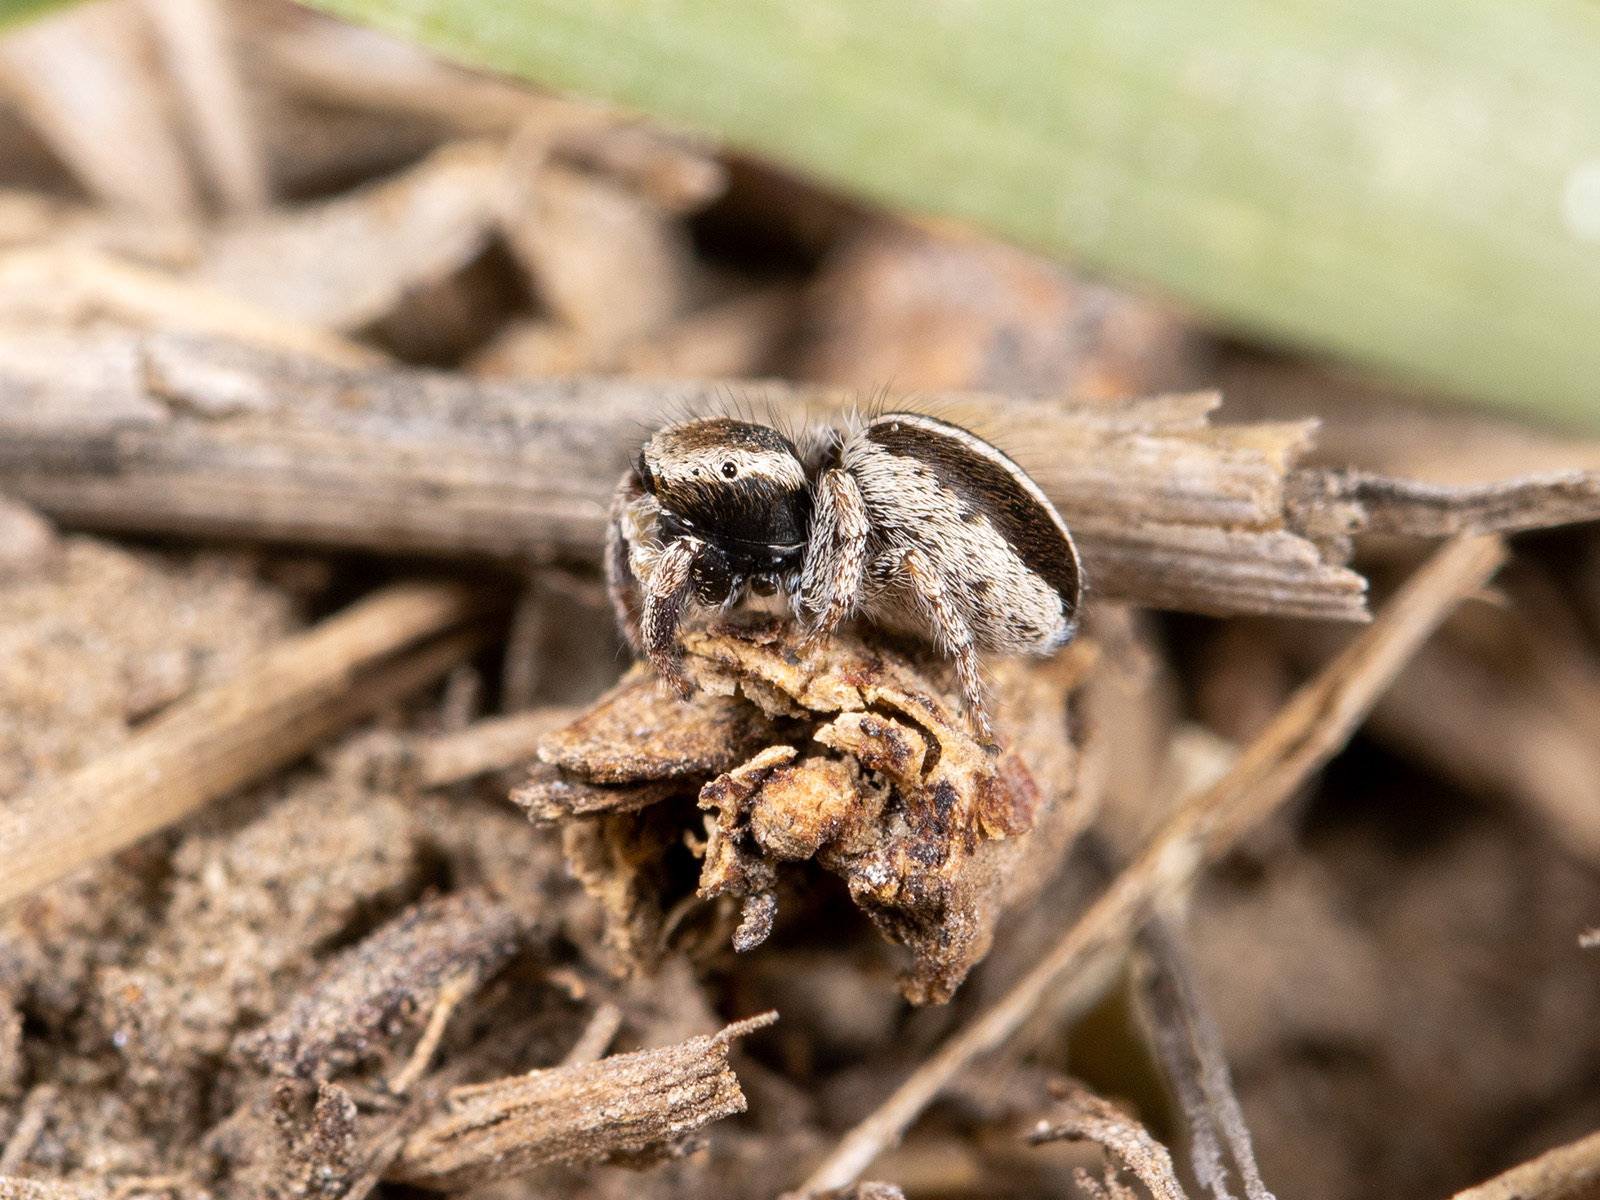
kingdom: Animalia
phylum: Arthropoda
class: Arachnida
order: Araneae
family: Salticidae
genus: Pellenes
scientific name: Pellenes epularis
